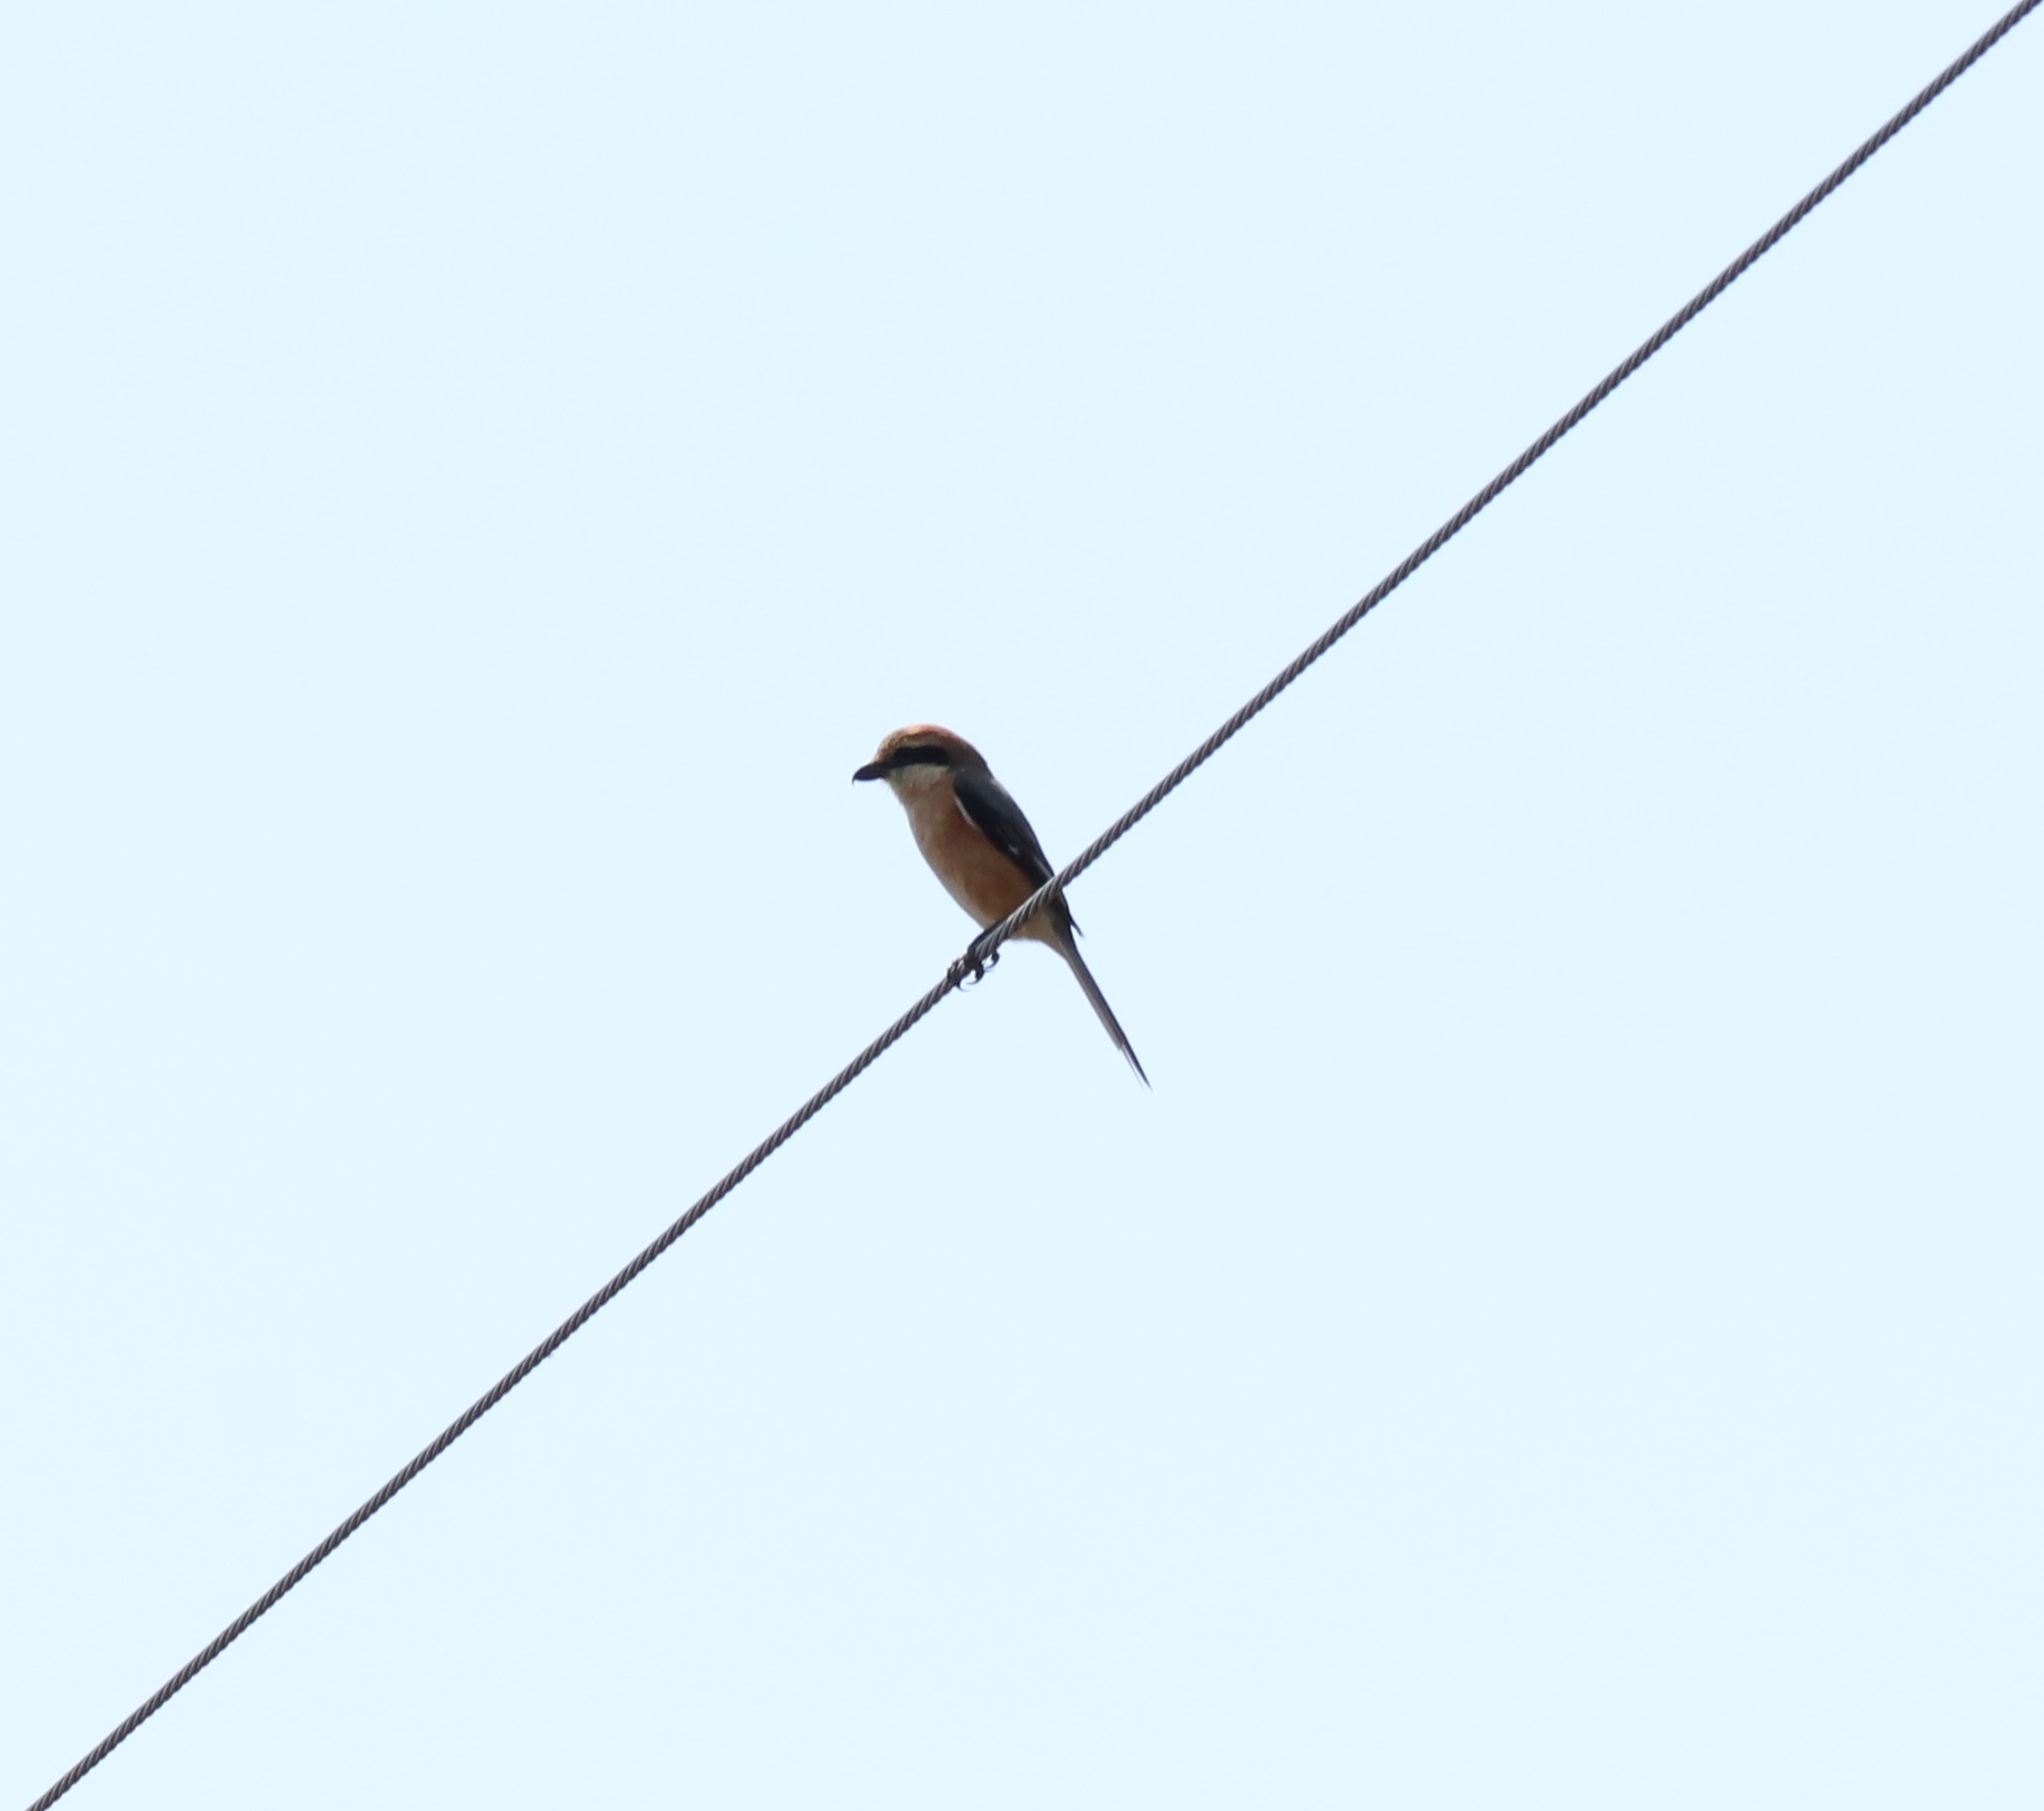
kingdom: Animalia
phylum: Chordata
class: Aves
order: Passeriformes
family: Laniidae
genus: Lanius
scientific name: Lanius bucephalus
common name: Bull-headed shrike
